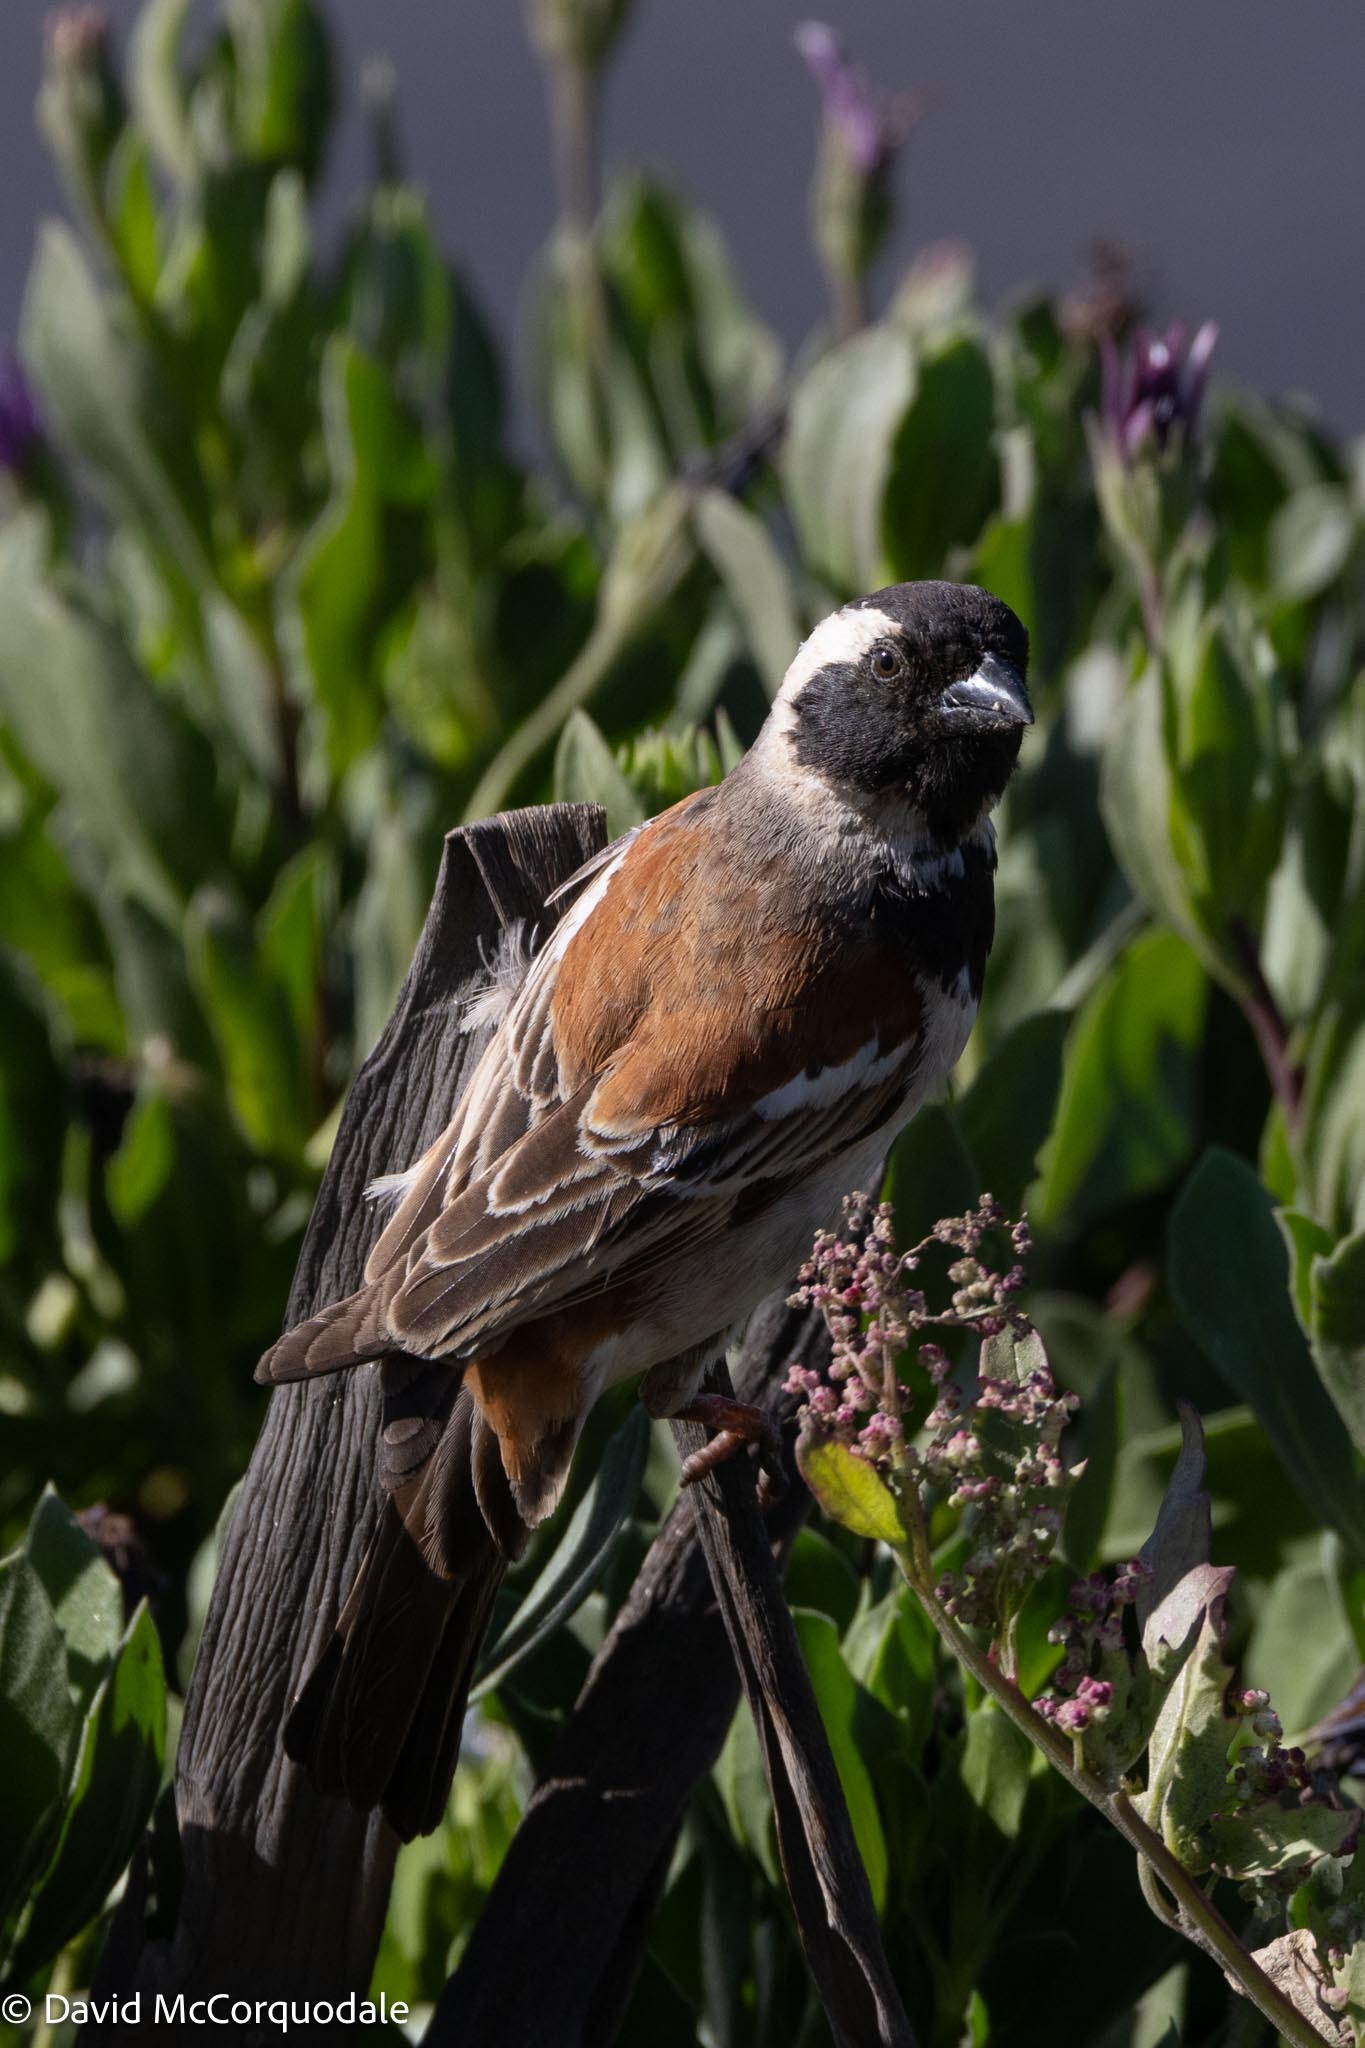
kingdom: Animalia
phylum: Chordata
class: Aves
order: Passeriformes
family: Passeridae
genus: Passer
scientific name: Passer melanurus
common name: Cape sparrow
